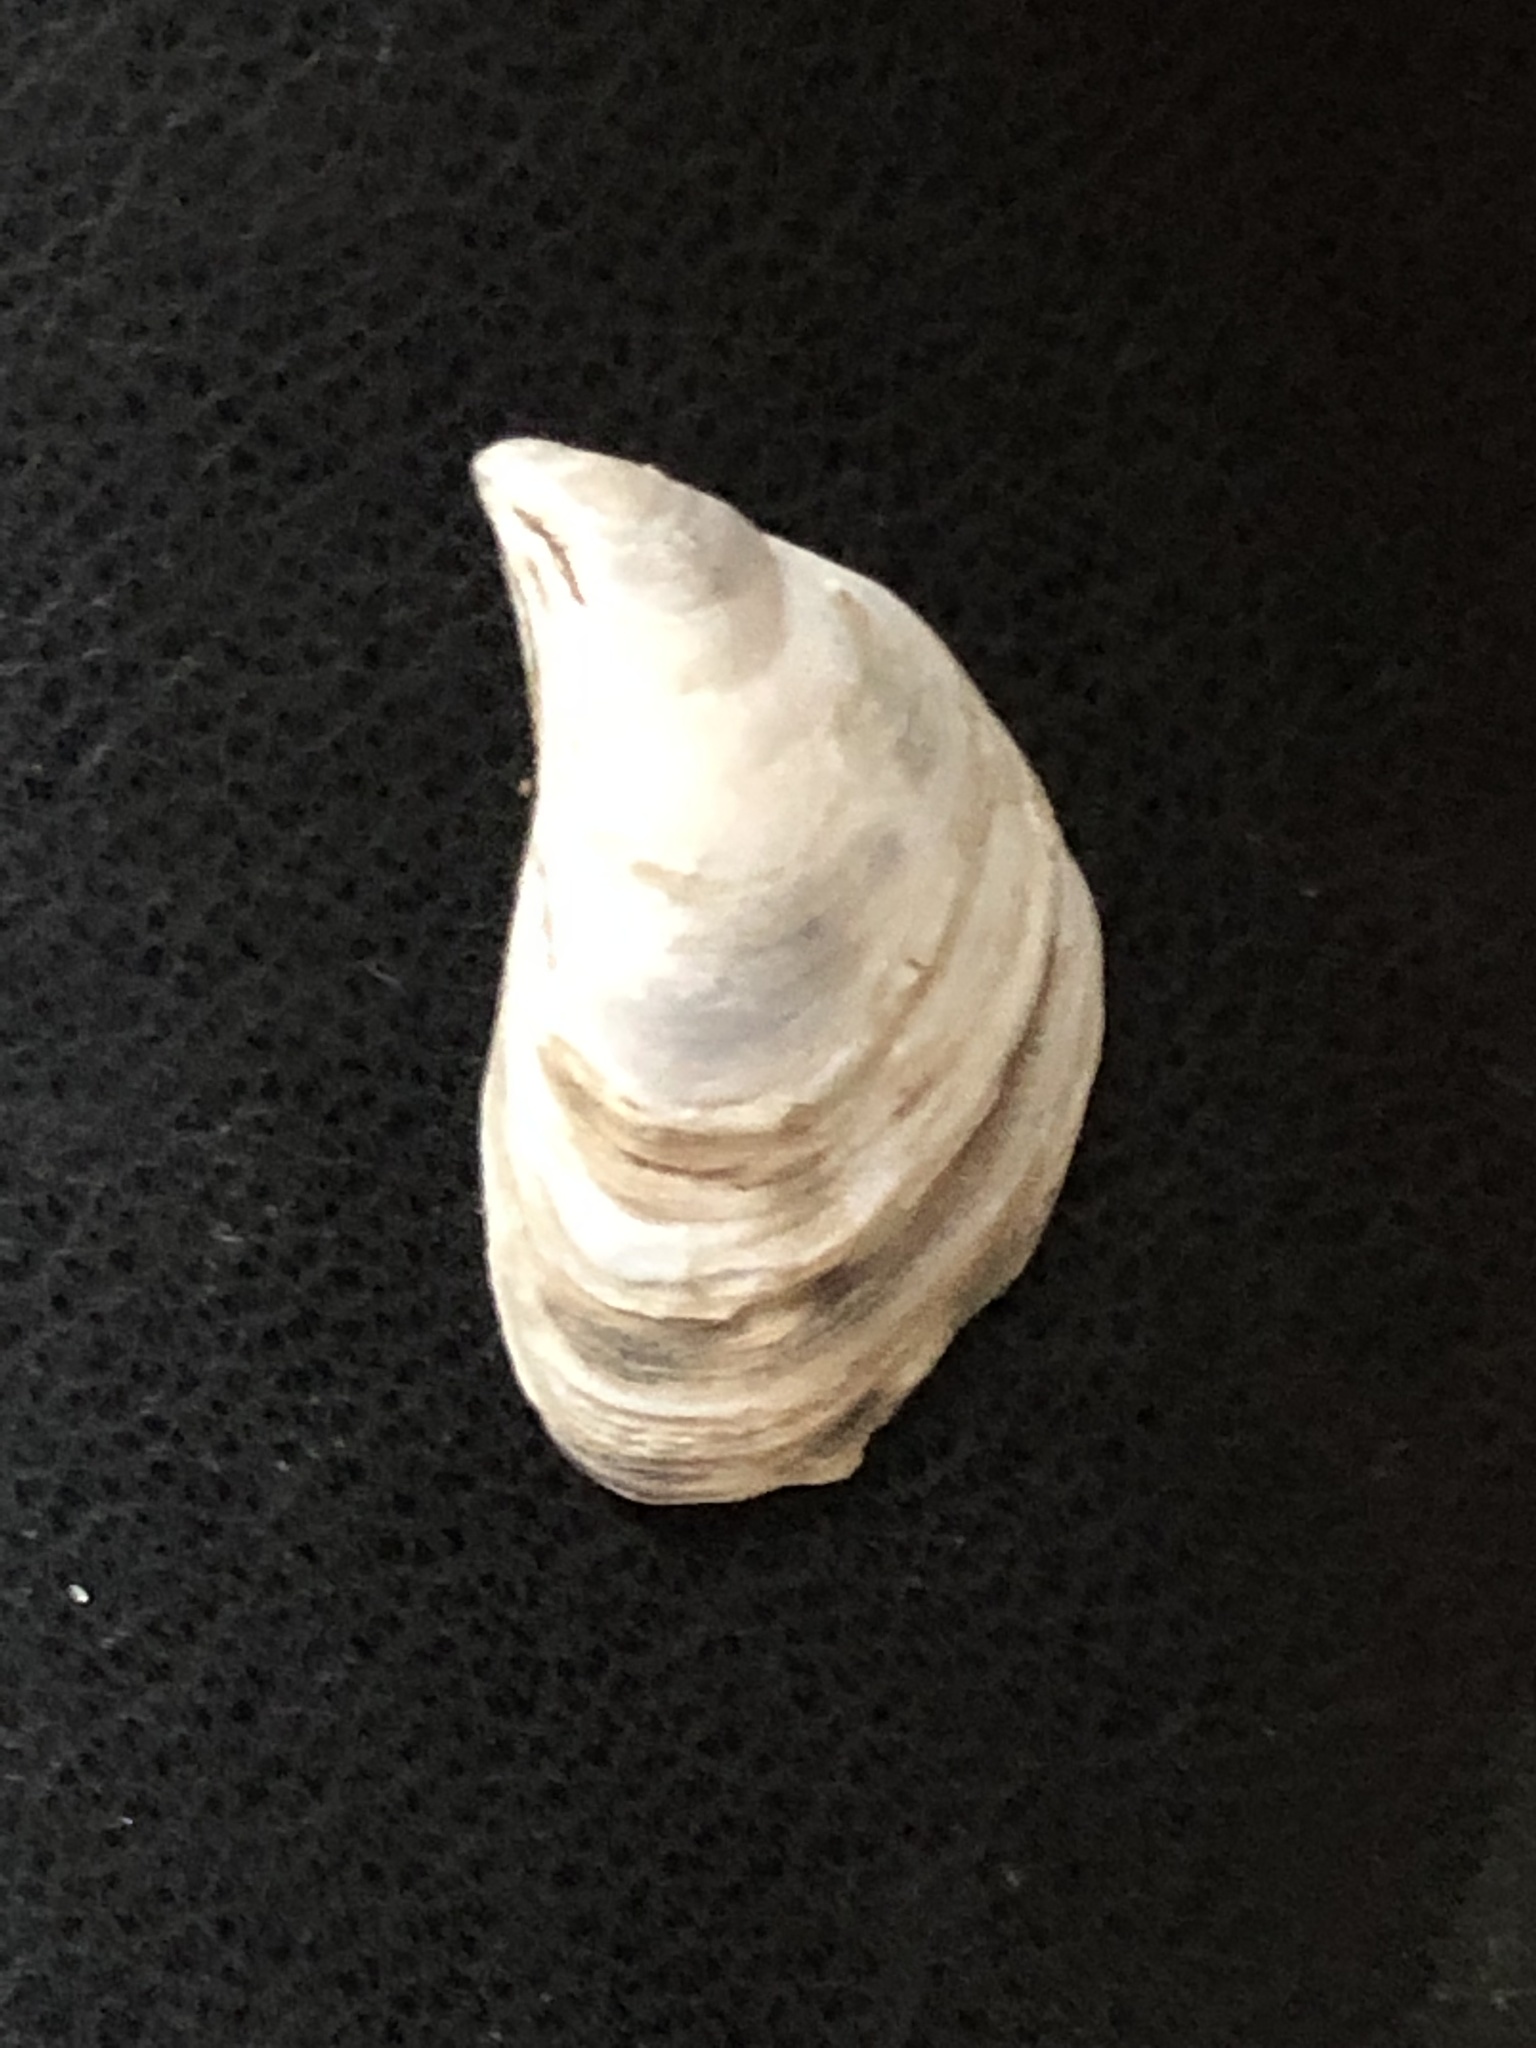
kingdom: Animalia
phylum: Mollusca
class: Bivalvia
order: Myida
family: Dreissenidae
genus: Dreissena
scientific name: Dreissena bugensis
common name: Quagga mussel
